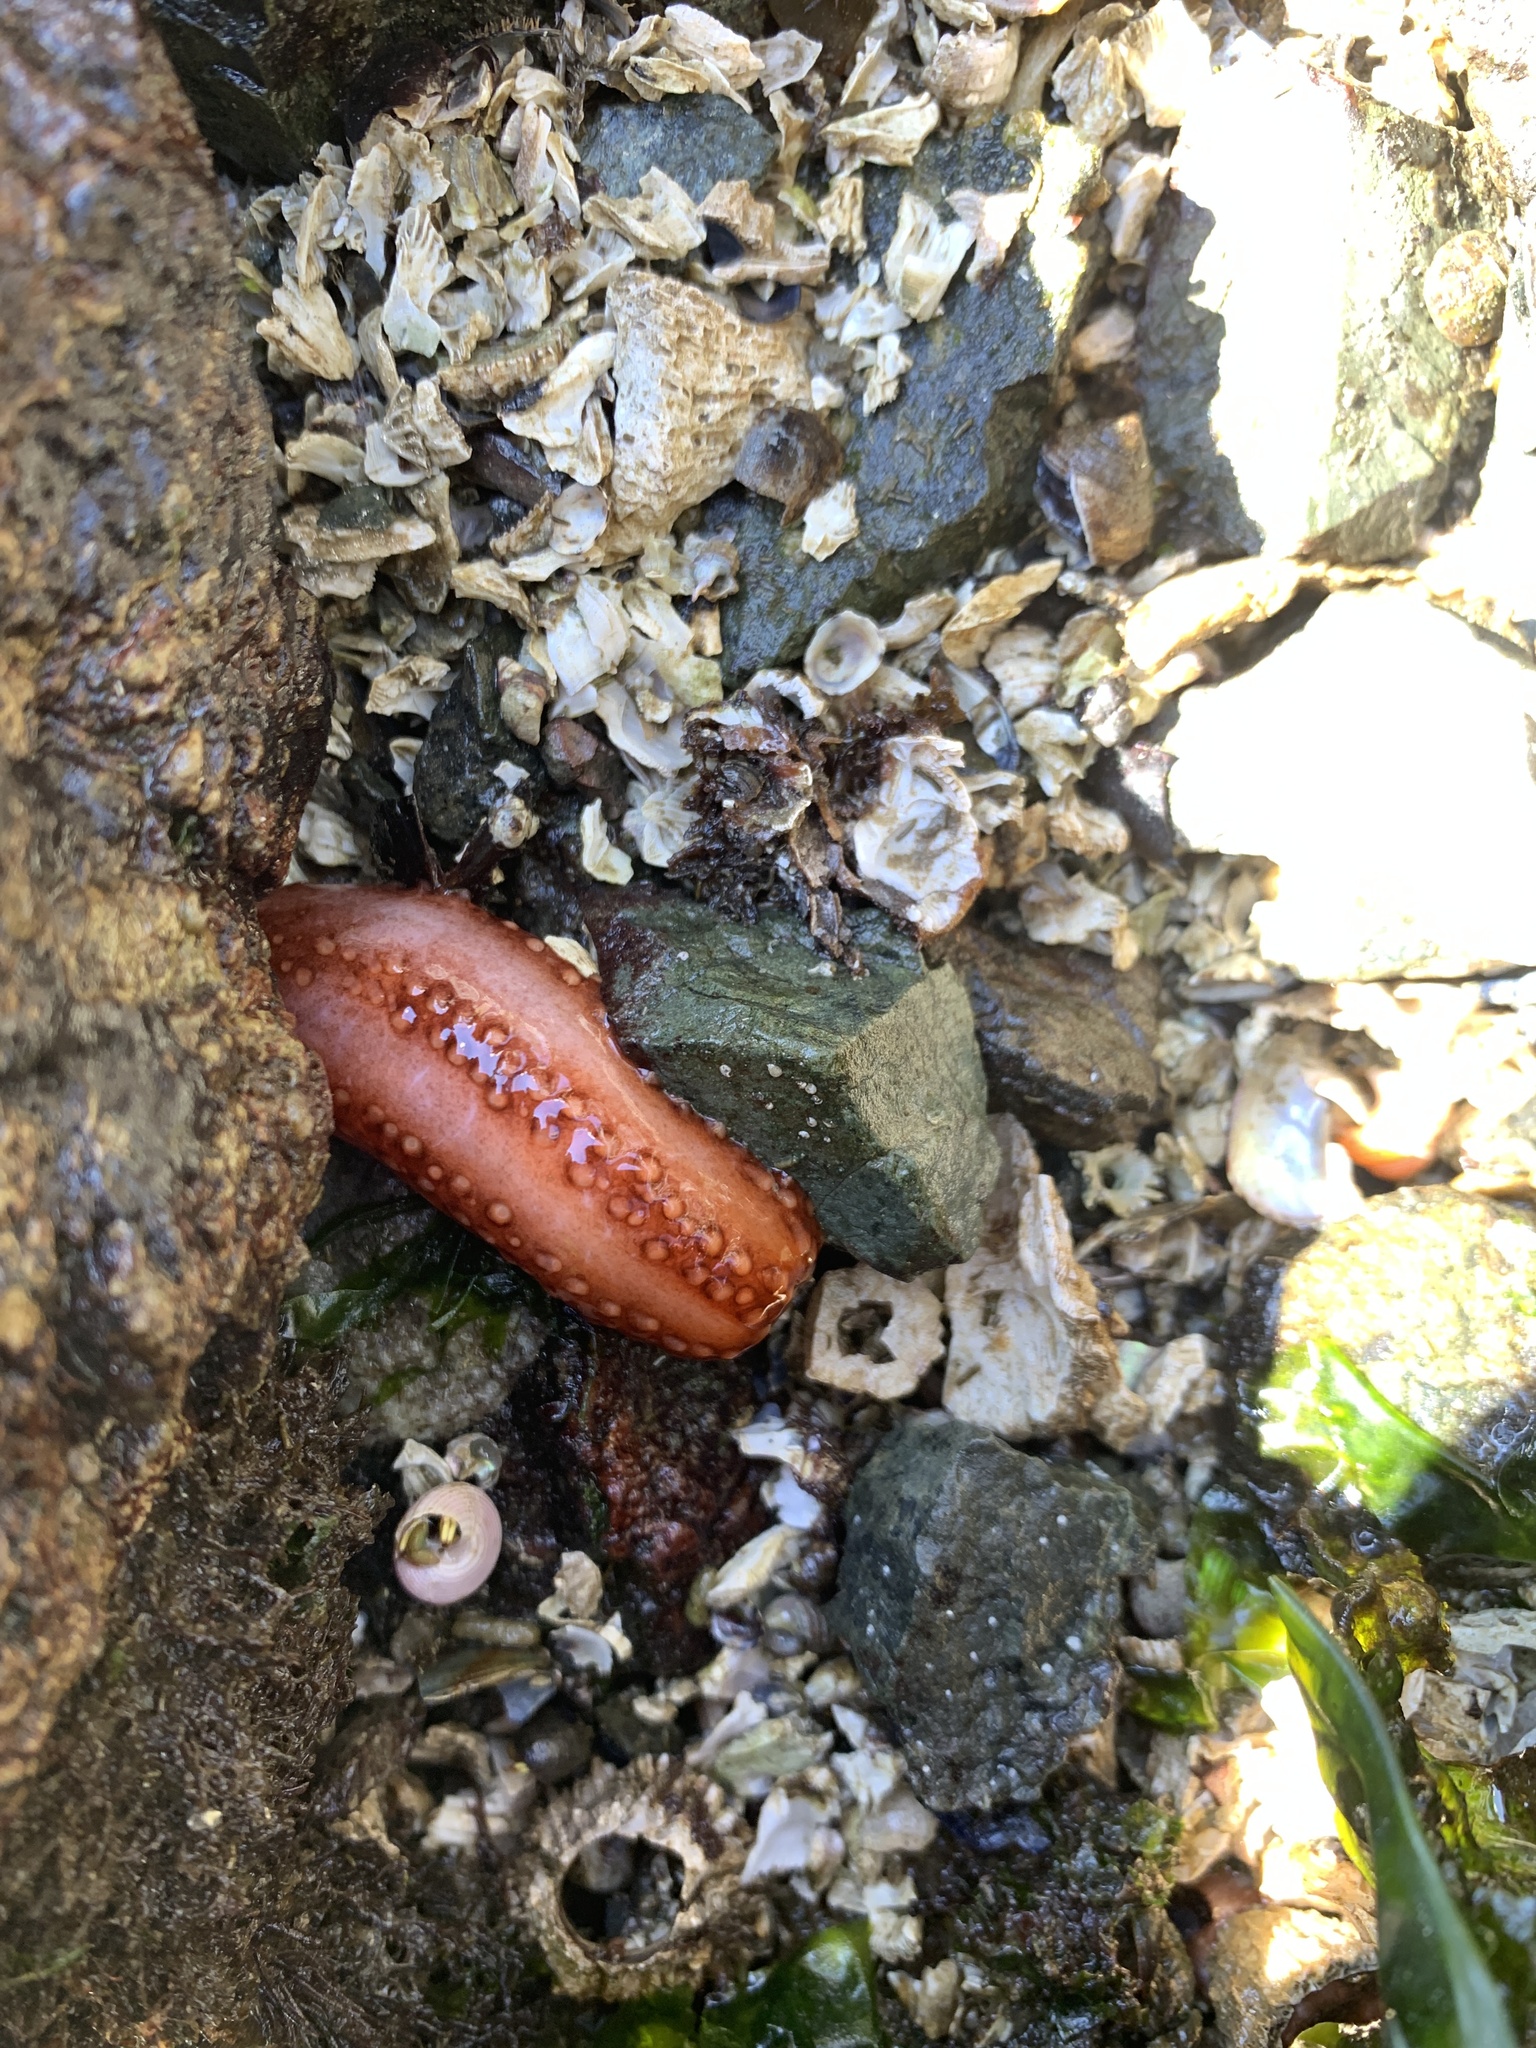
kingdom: Animalia
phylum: Echinodermata
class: Holothuroidea
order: Dendrochirotida
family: Cucumariidae
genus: Cucumaria
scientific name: Cucumaria miniata
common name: Orange sea cucumber
